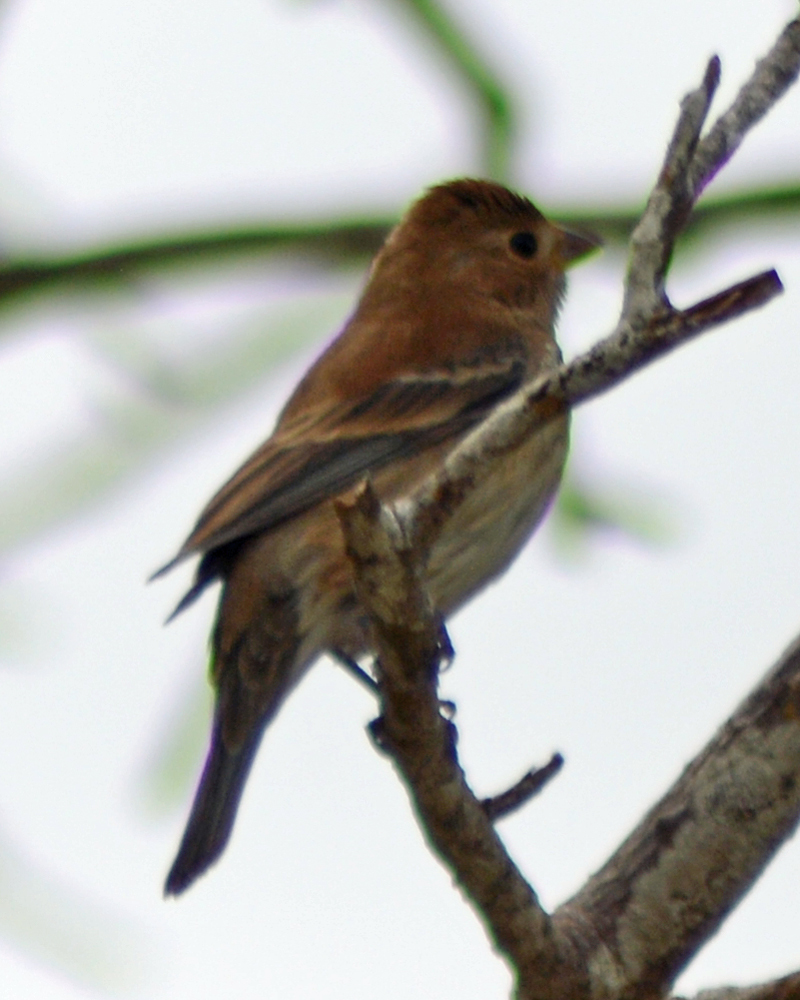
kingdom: Animalia
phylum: Chordata
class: Aves
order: Passeriformes
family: Cardinalidae
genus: Passerina
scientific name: Passerina cyanea
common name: Indigo bunting
